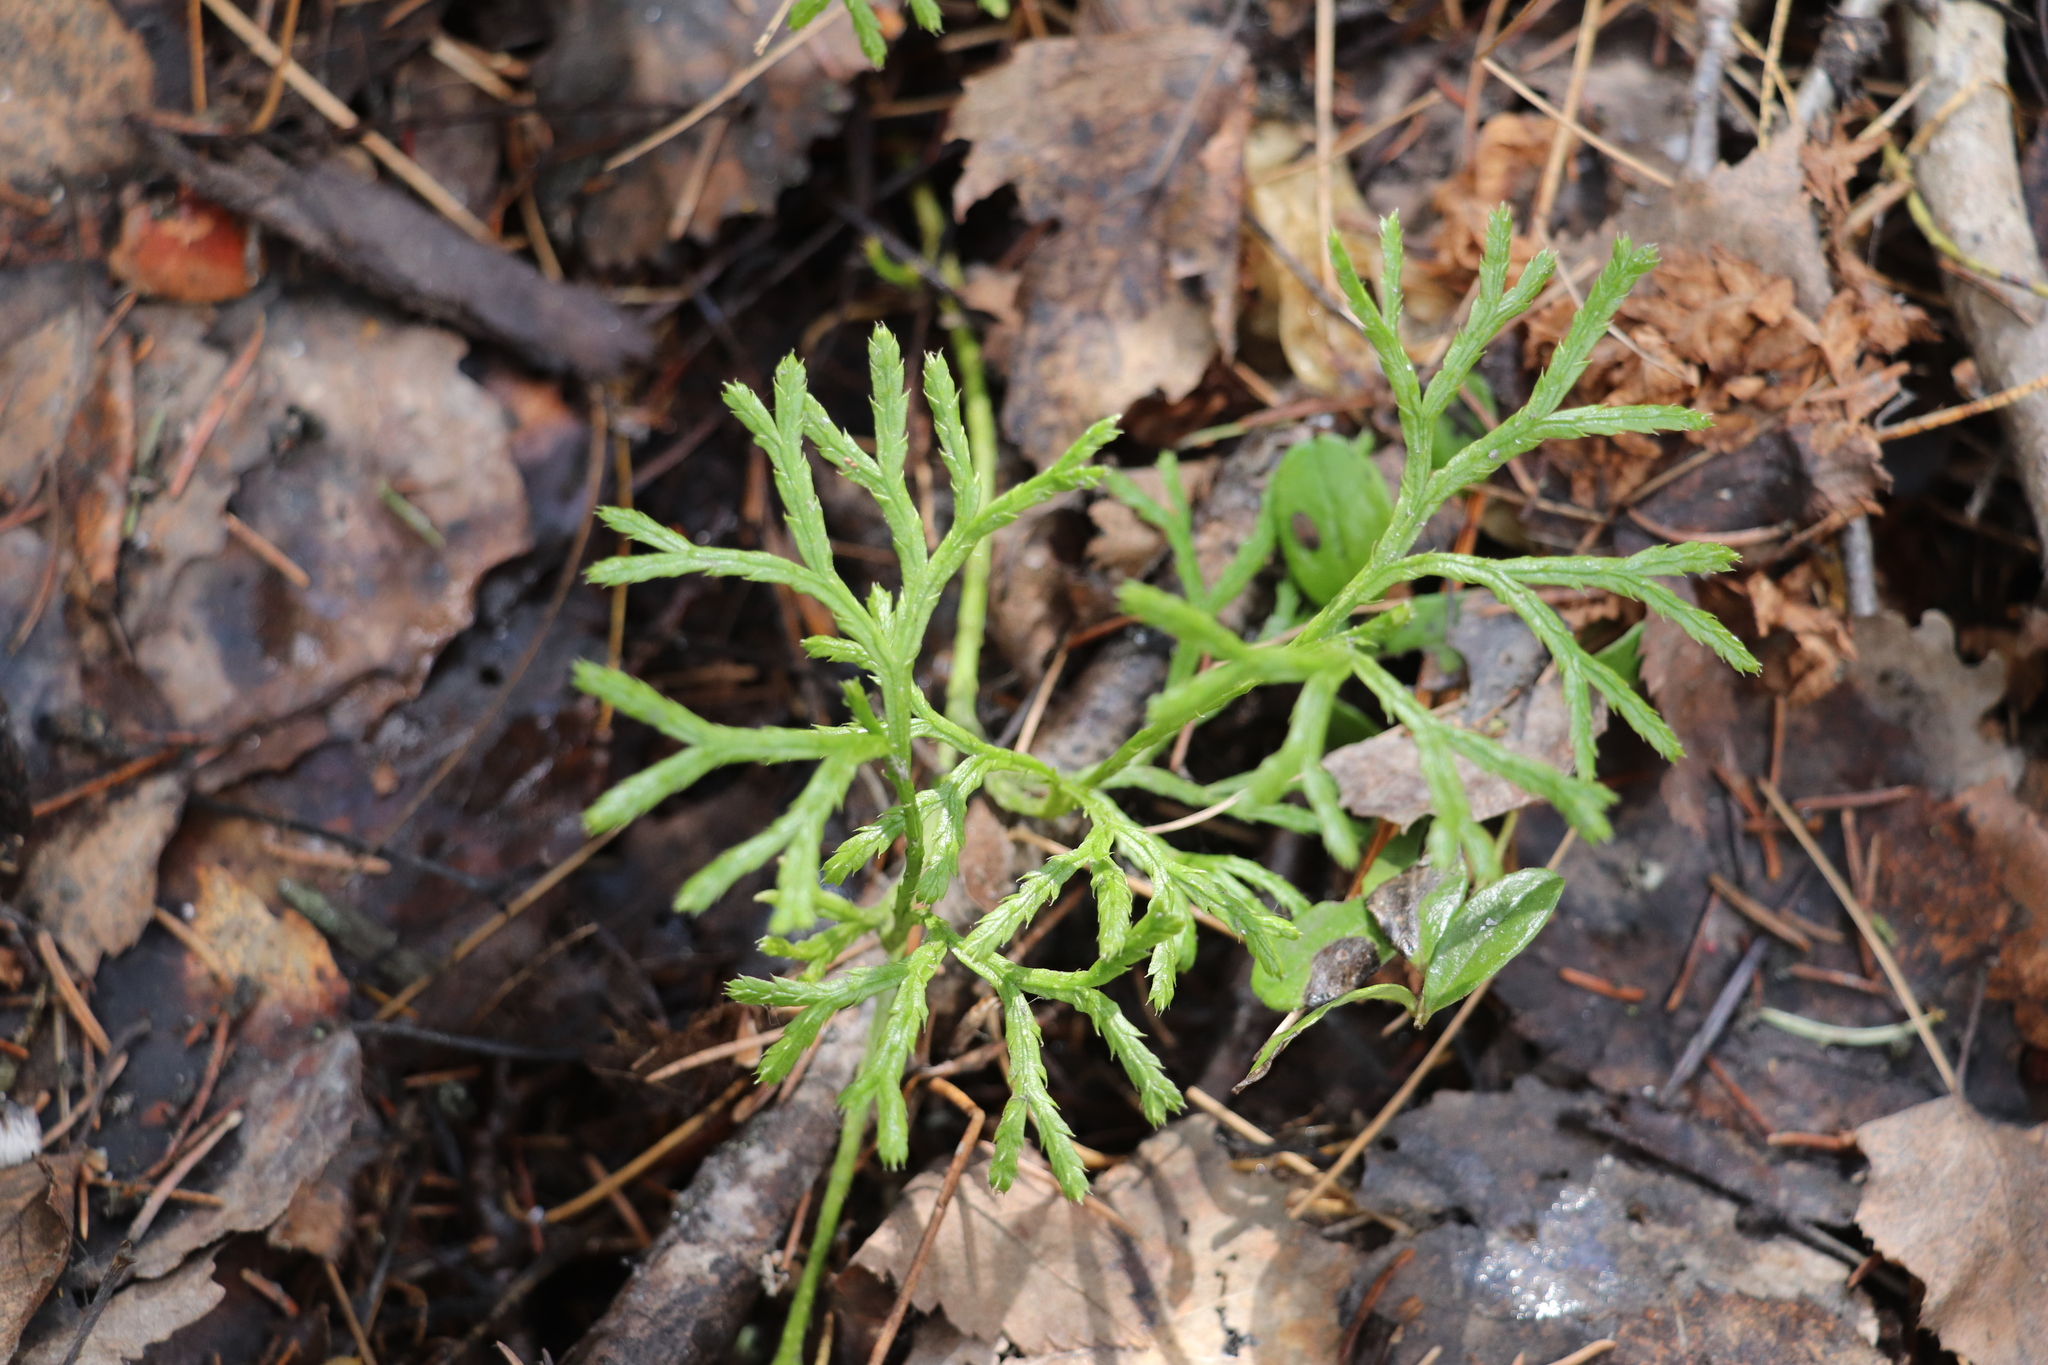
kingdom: Plantae
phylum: Tracheophyta
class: Lycopodiopsida
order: Lycopodiales
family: Lycopodiaceae
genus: Diphasiastrum
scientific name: Diphasiastrum complanatum
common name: Northern running-pine
